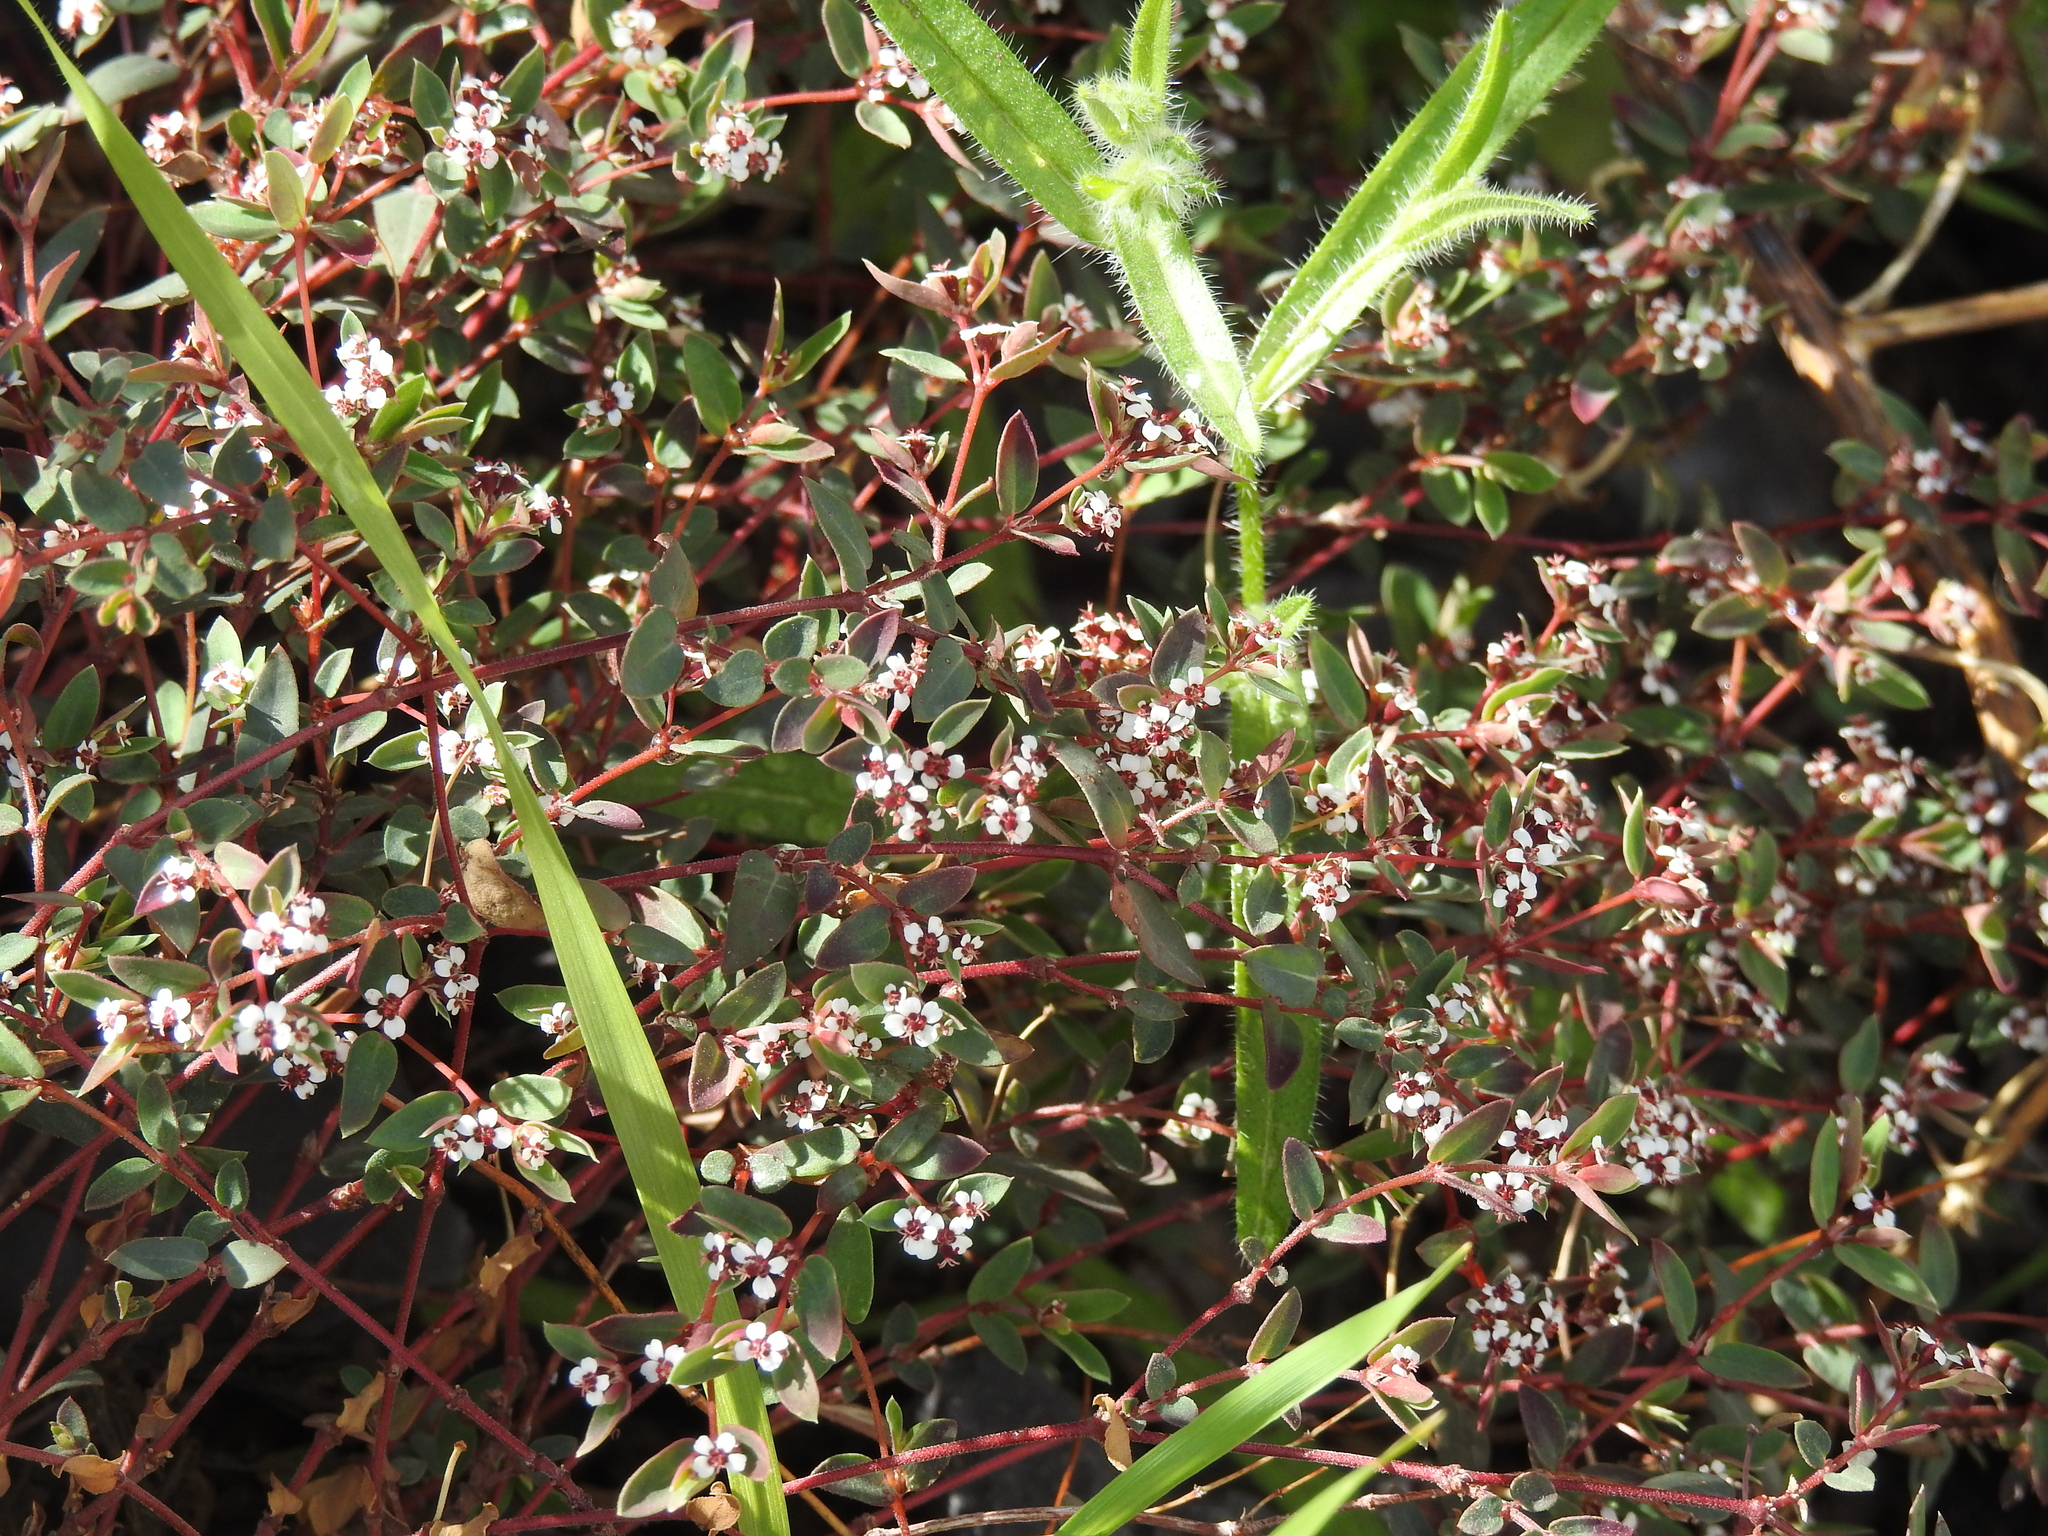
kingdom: Plantae
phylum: Tracheophyta
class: Magnoliopsida
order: Malpighiales
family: Euphorbiaceae
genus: Euphorbia
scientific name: Euphorbia capitellata
